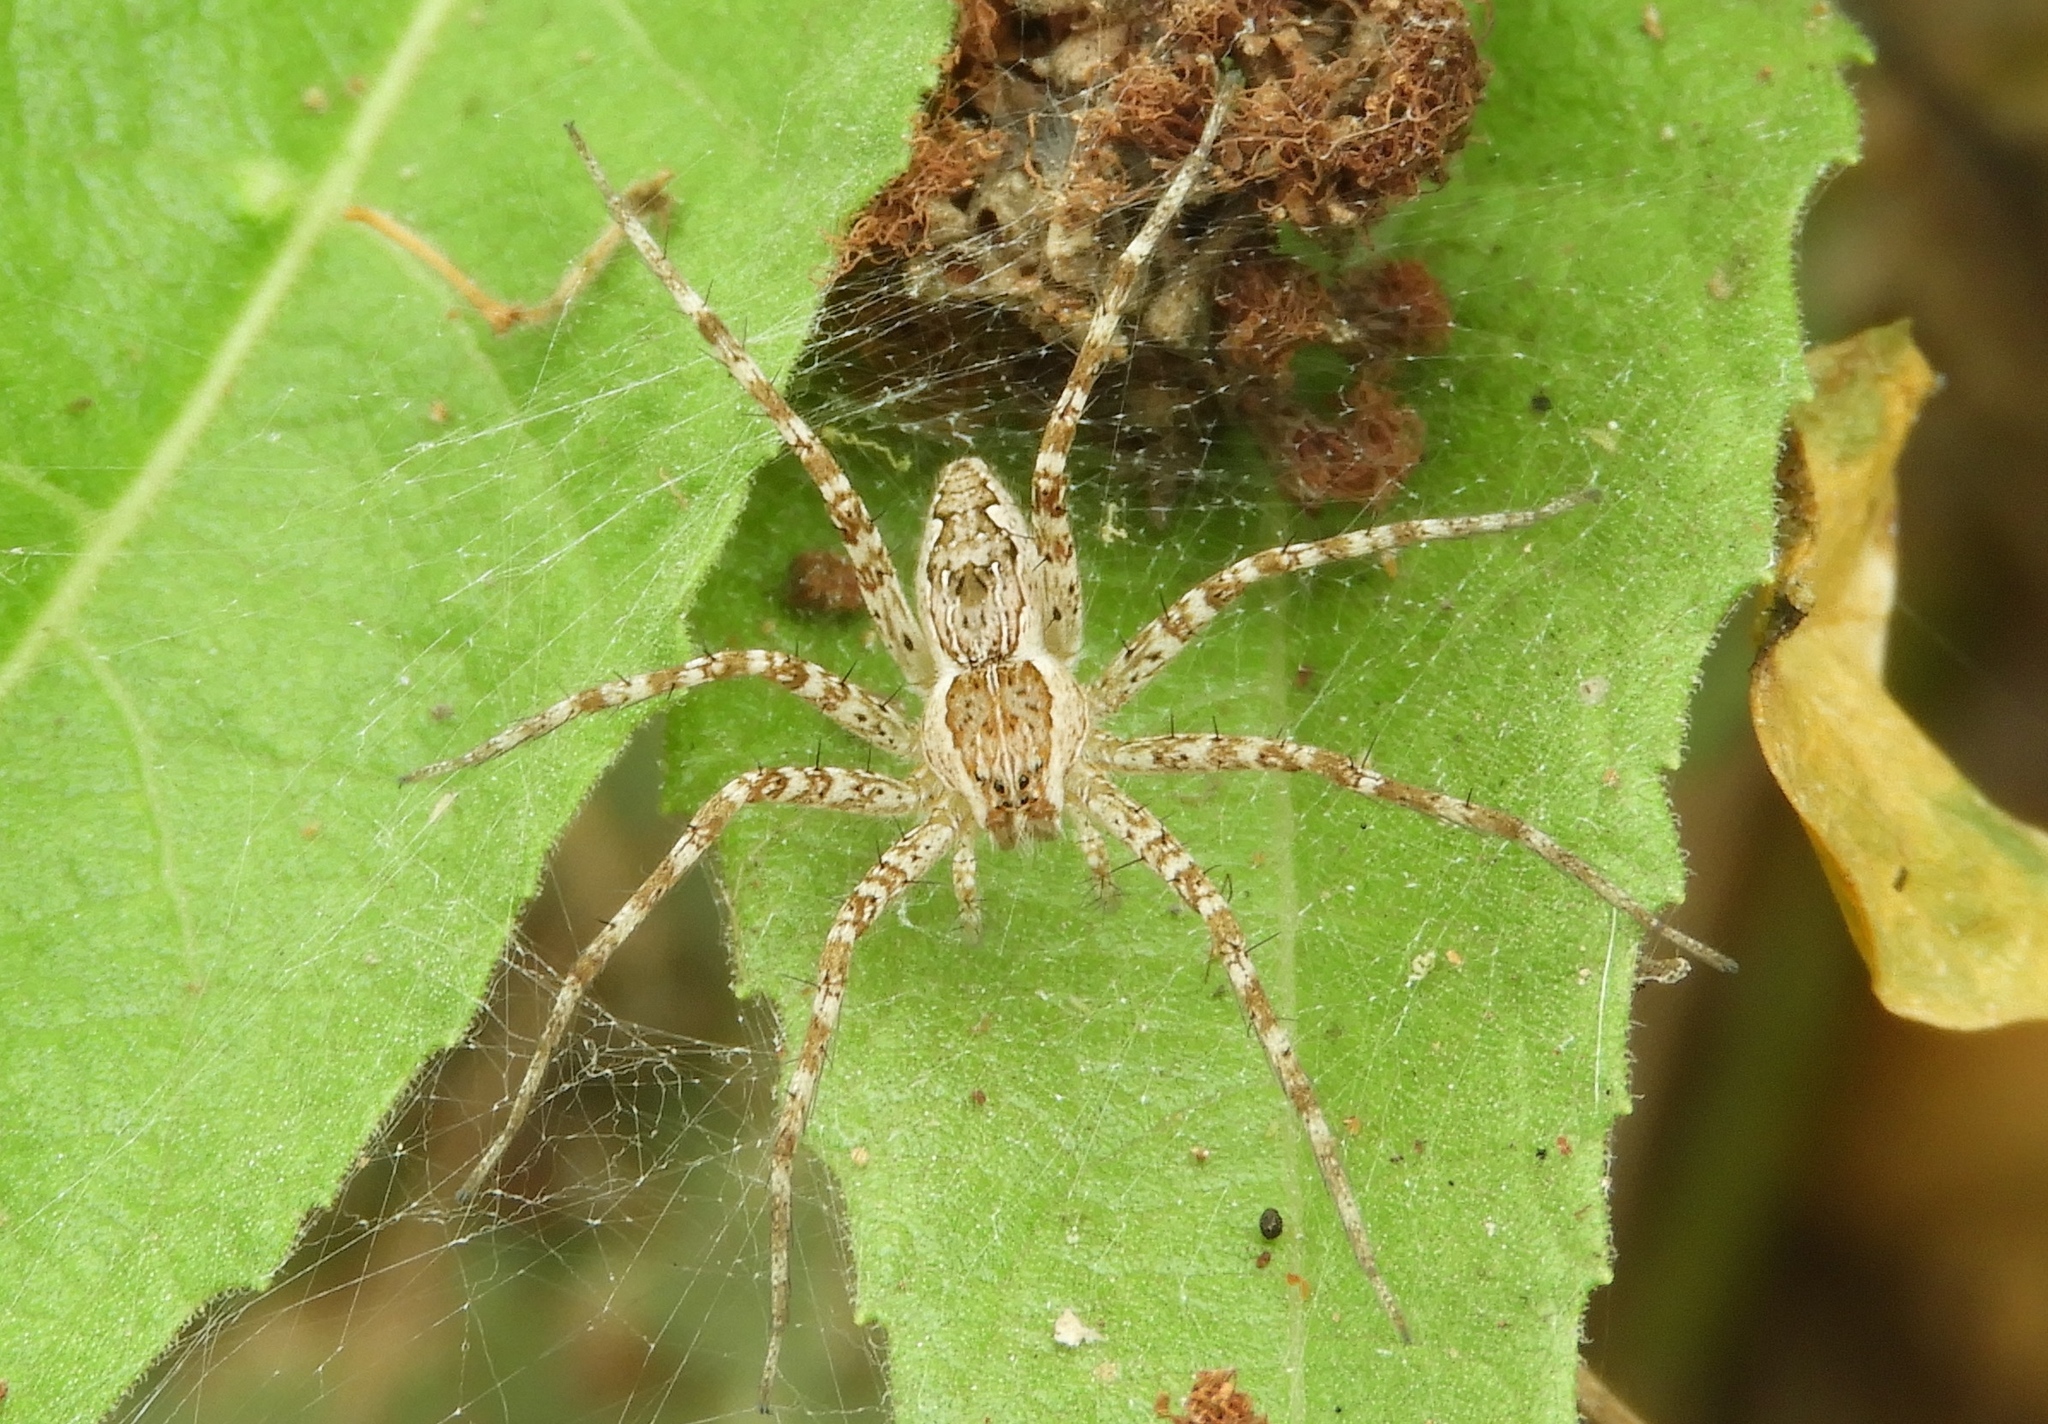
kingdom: Animalia
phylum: Arthropoda
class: Arachnida
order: Araneae
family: Pisauridae
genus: Tinus
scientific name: Tinus
